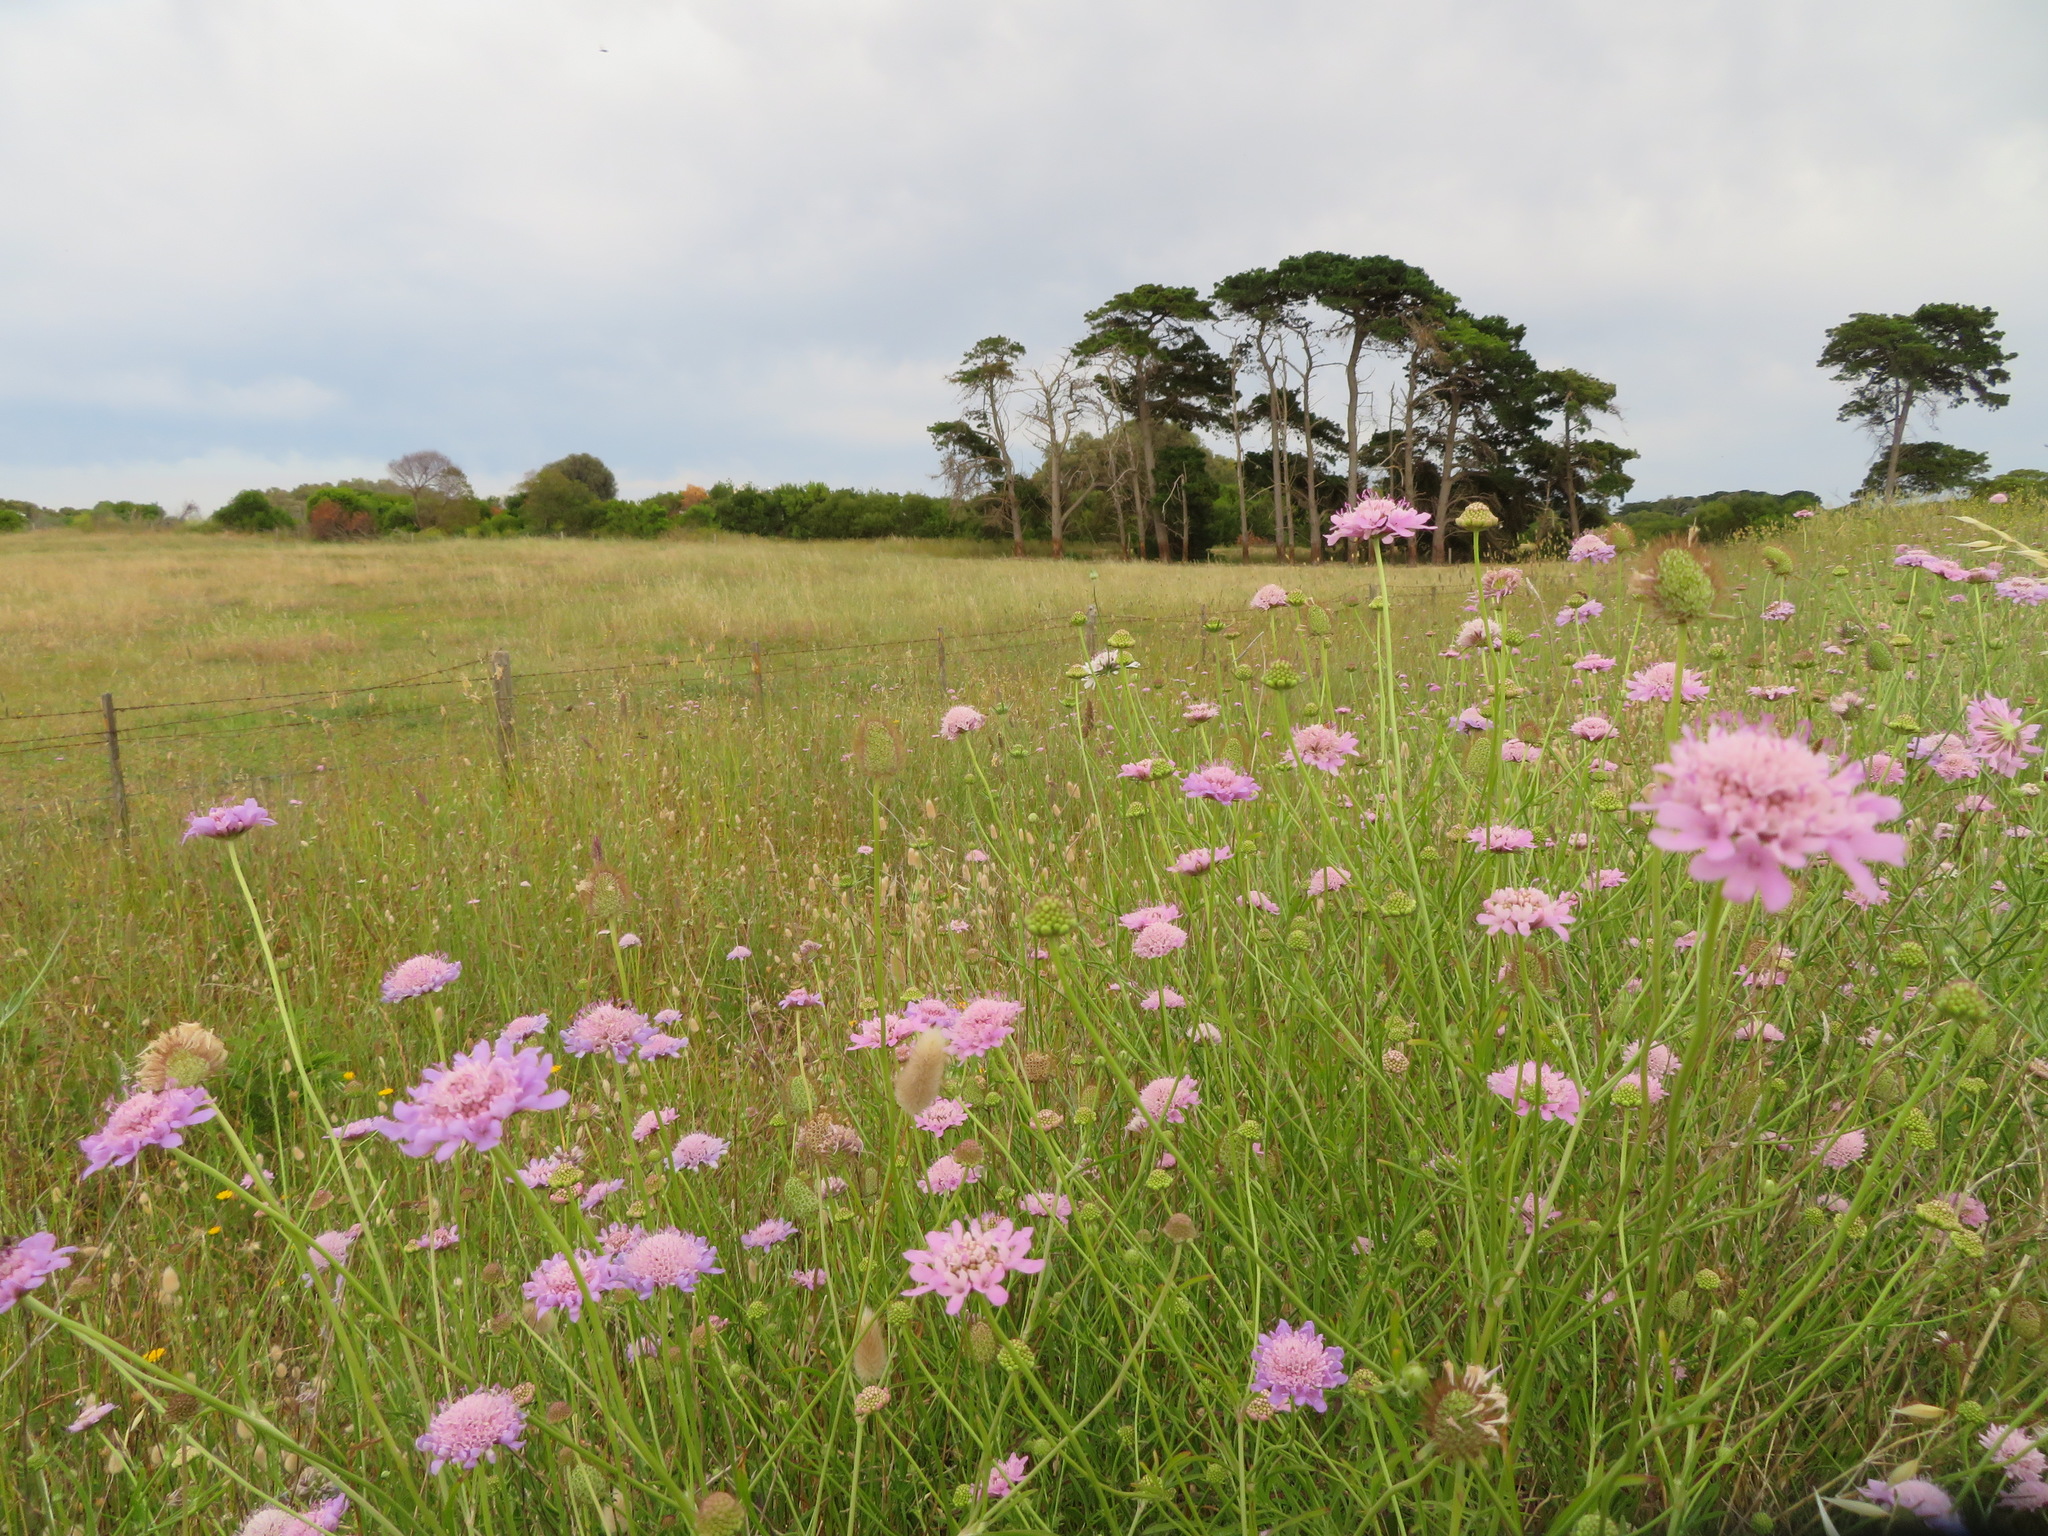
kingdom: Plantae
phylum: Tracheophyta
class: Magnoliopsida
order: Dipsacales
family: Caprifoliaceae
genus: Sixalix
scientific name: Sixalix atropurpurea
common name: Sweet scabious
